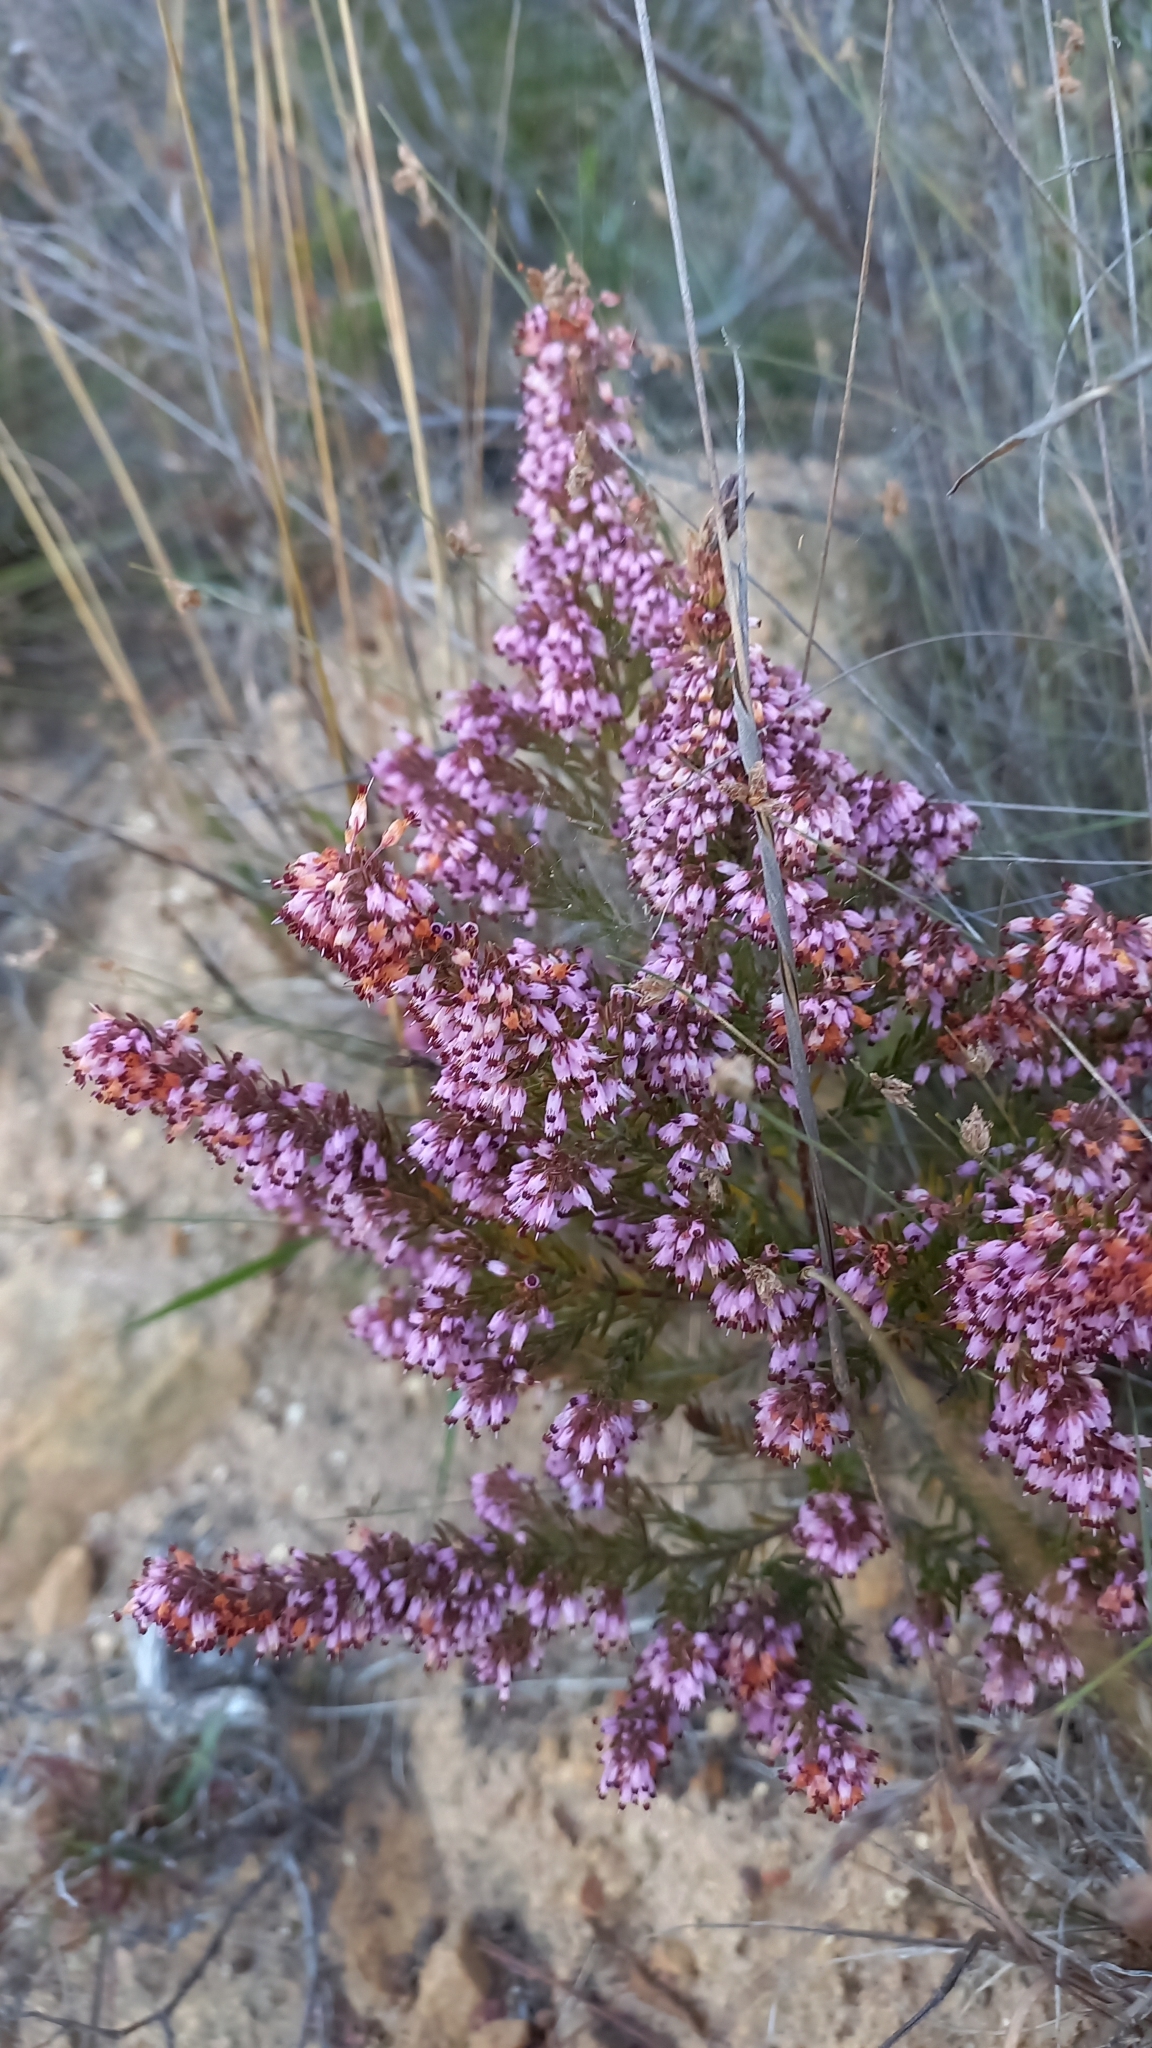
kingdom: Plantae
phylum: Tracheophyta
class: Magnoliopsida
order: Ericales
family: Ericaceae
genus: Erica
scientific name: Erica nudiflora
